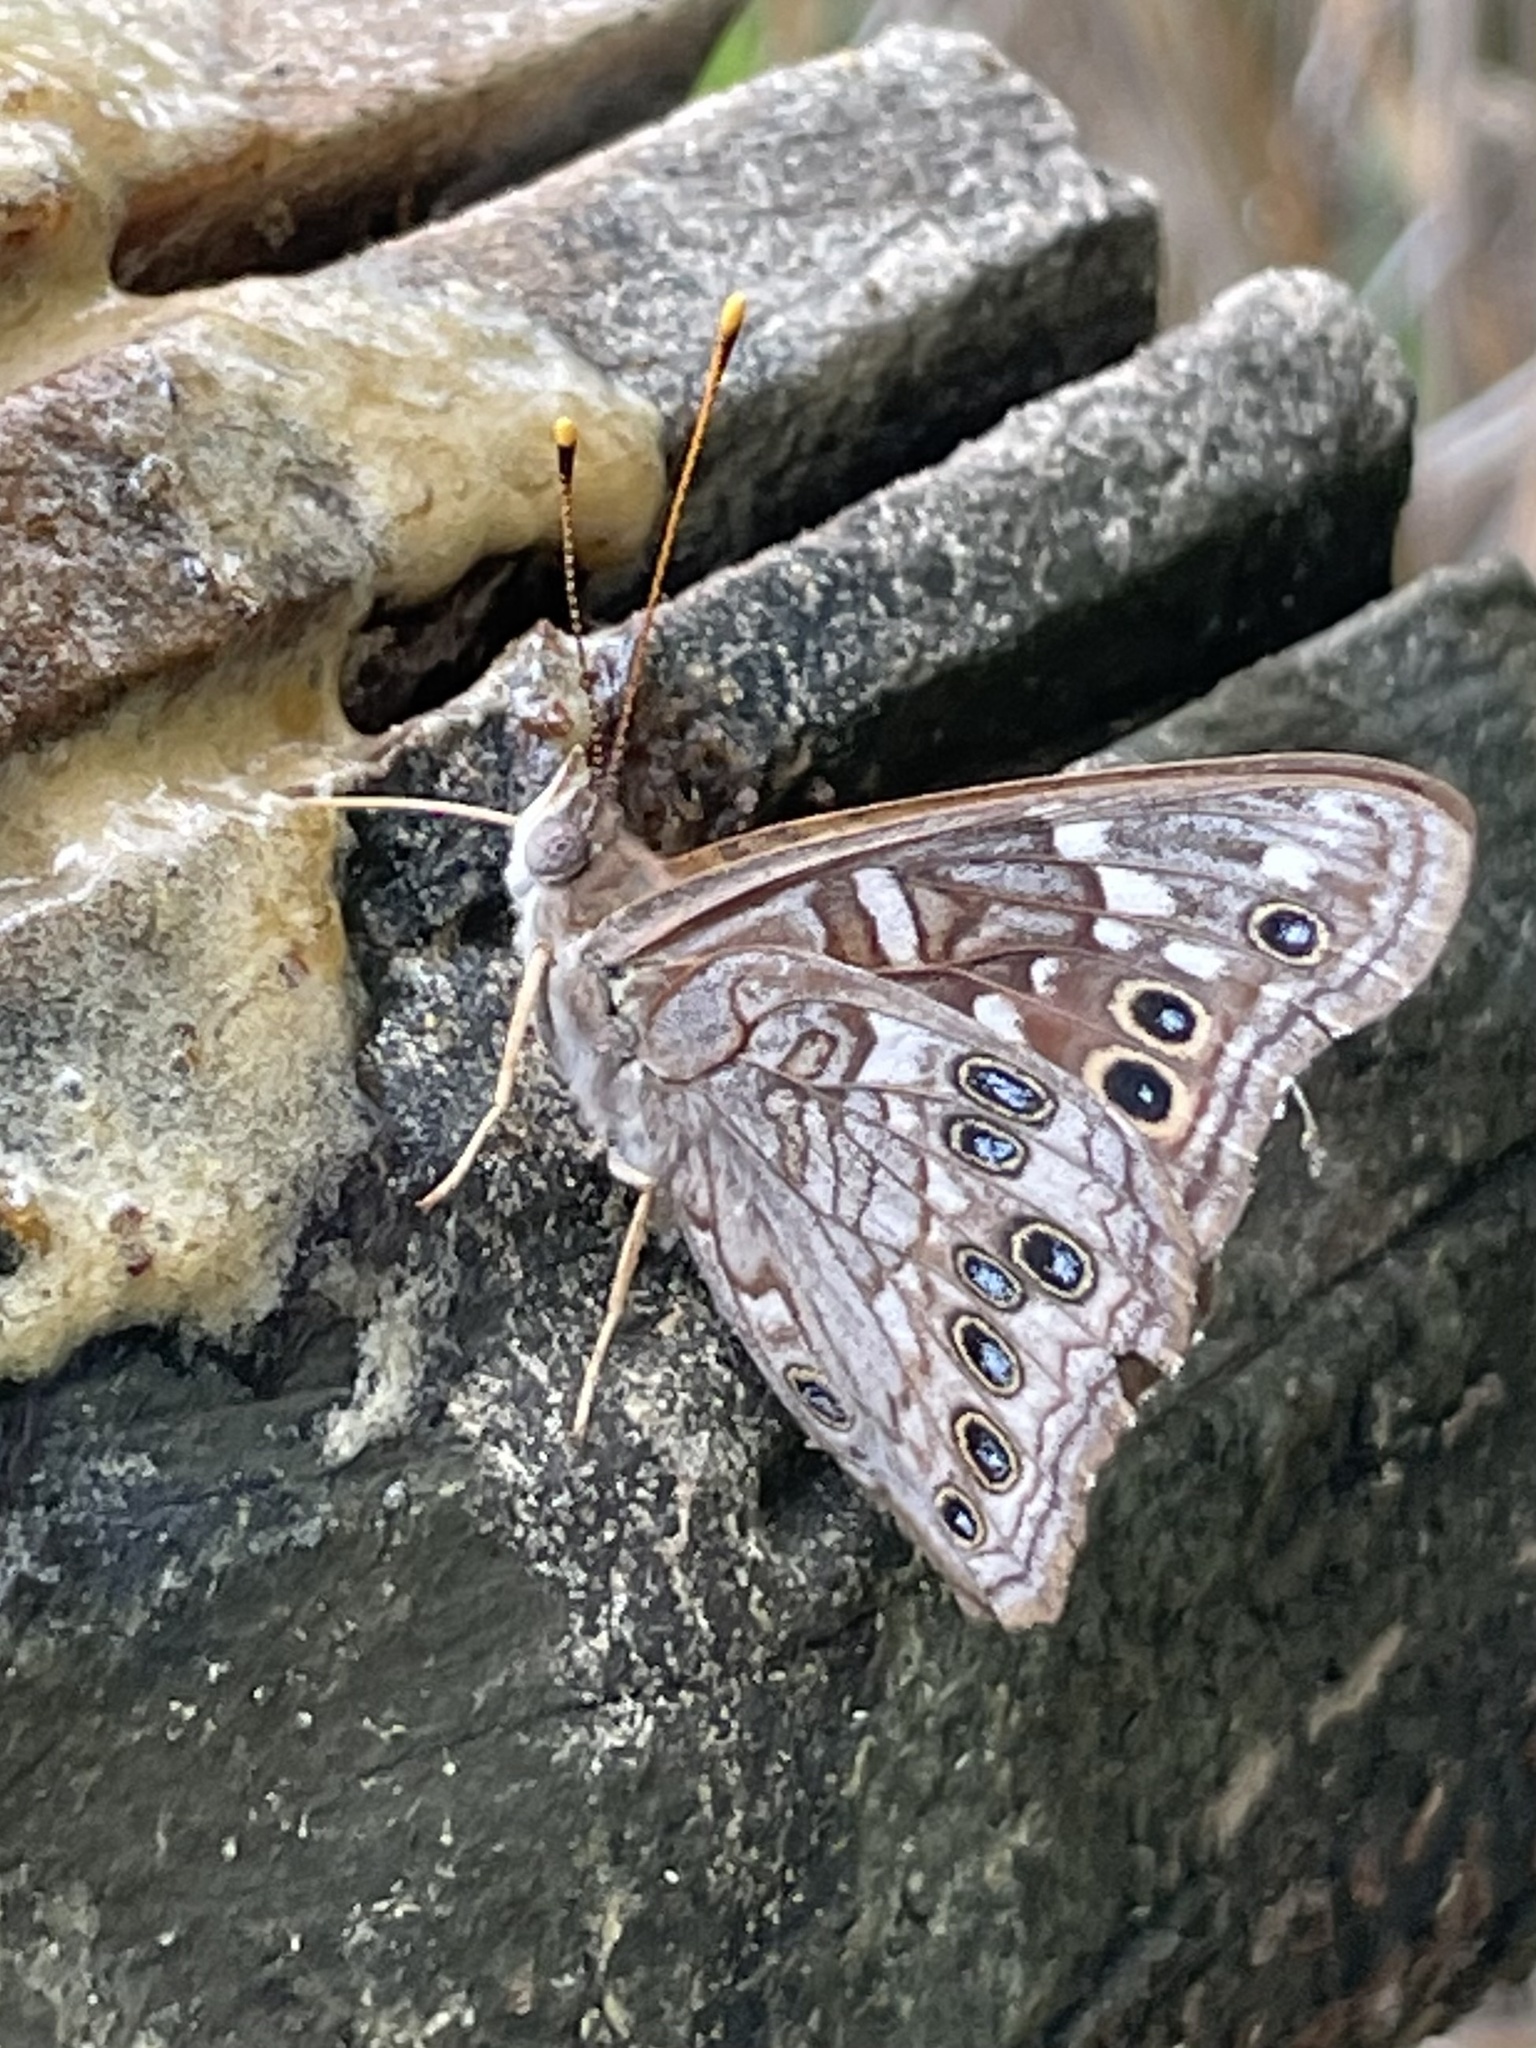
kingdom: Animalia
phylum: Arthropoda
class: Insecta
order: Lepidoptera
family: Nymphalidae
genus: Asterocampa
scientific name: Asterocampa leilia
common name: Empress leilia
